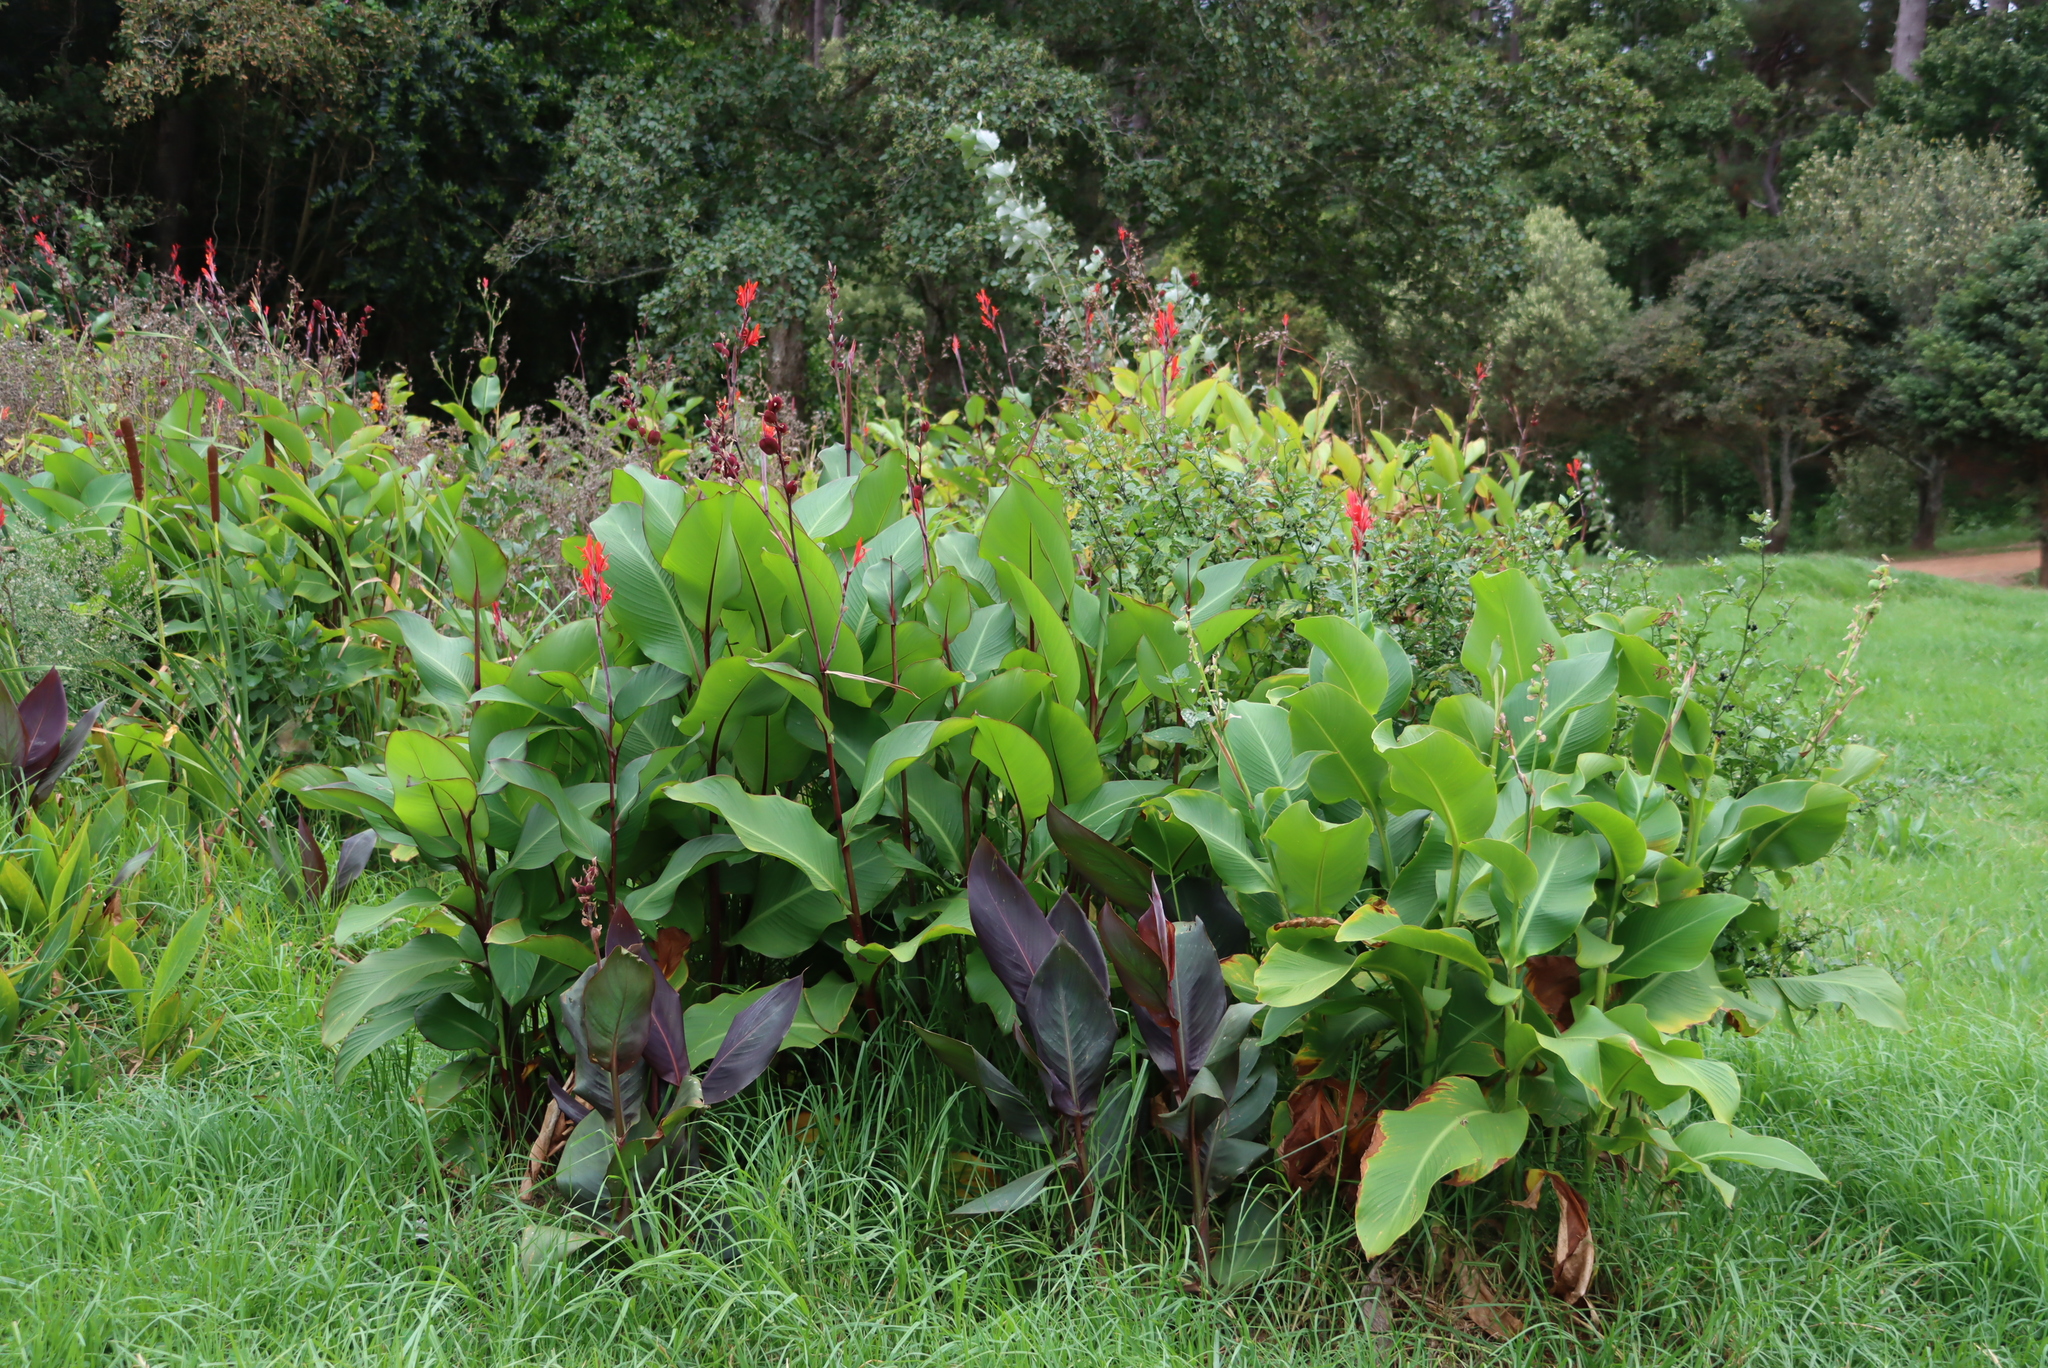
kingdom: Plantae
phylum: Tracheophyta
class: Liliopsida
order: Zingiberales
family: Cannaceae
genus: Canna
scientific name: Canna indica
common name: Indian shot
